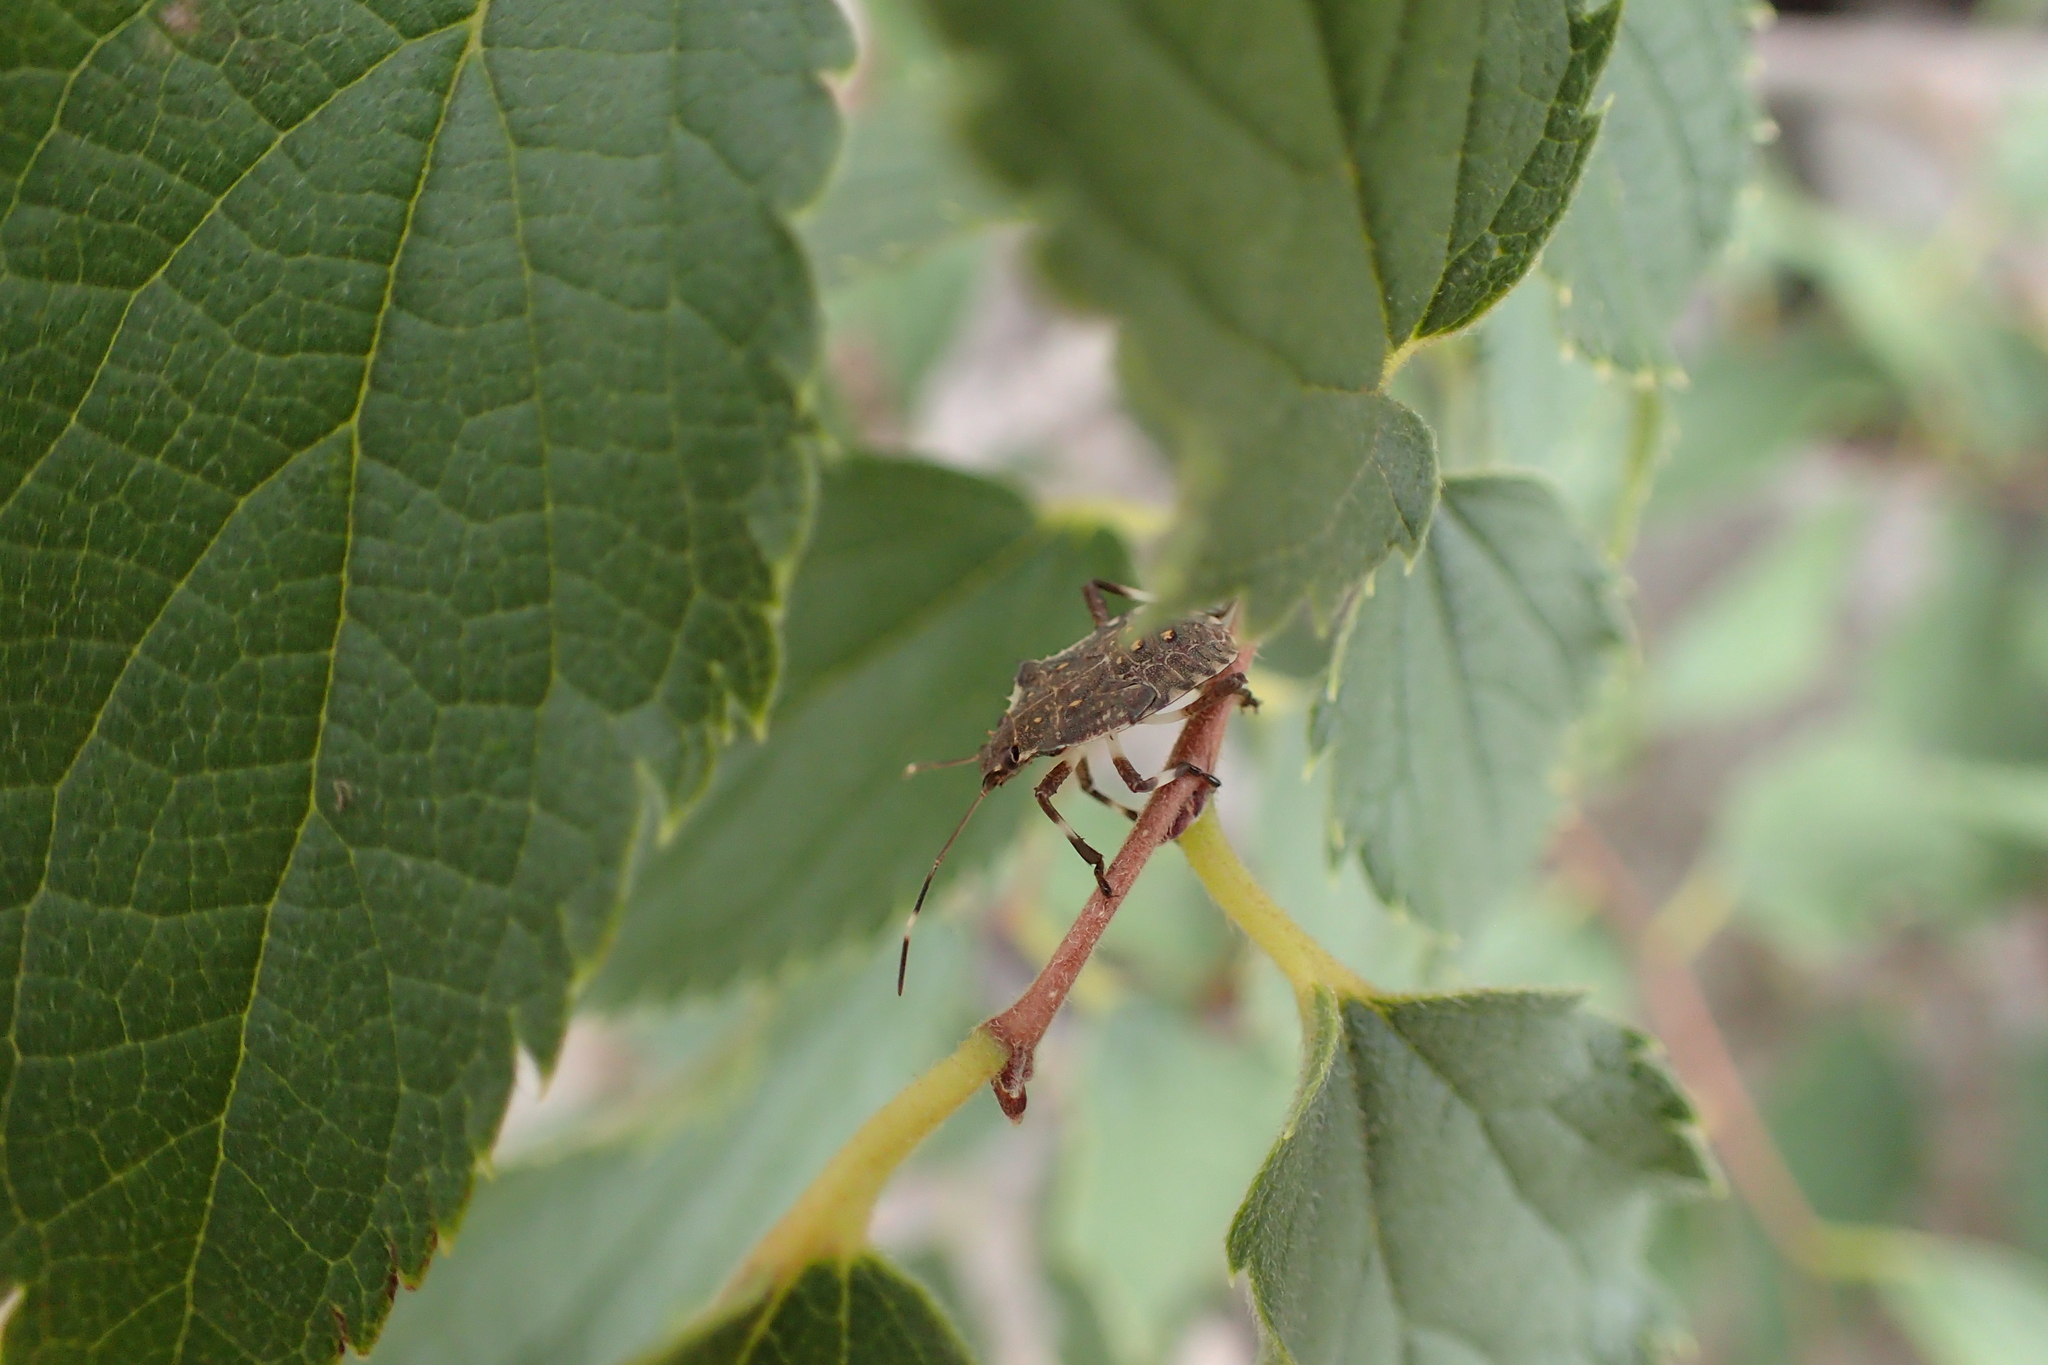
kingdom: Animalia
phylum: Arthropoda
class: Insecta
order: Hemiptera
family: Pentatomidae
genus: Halyomorpha
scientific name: Halyomorpha halys
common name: Brown marmorated stink bug
